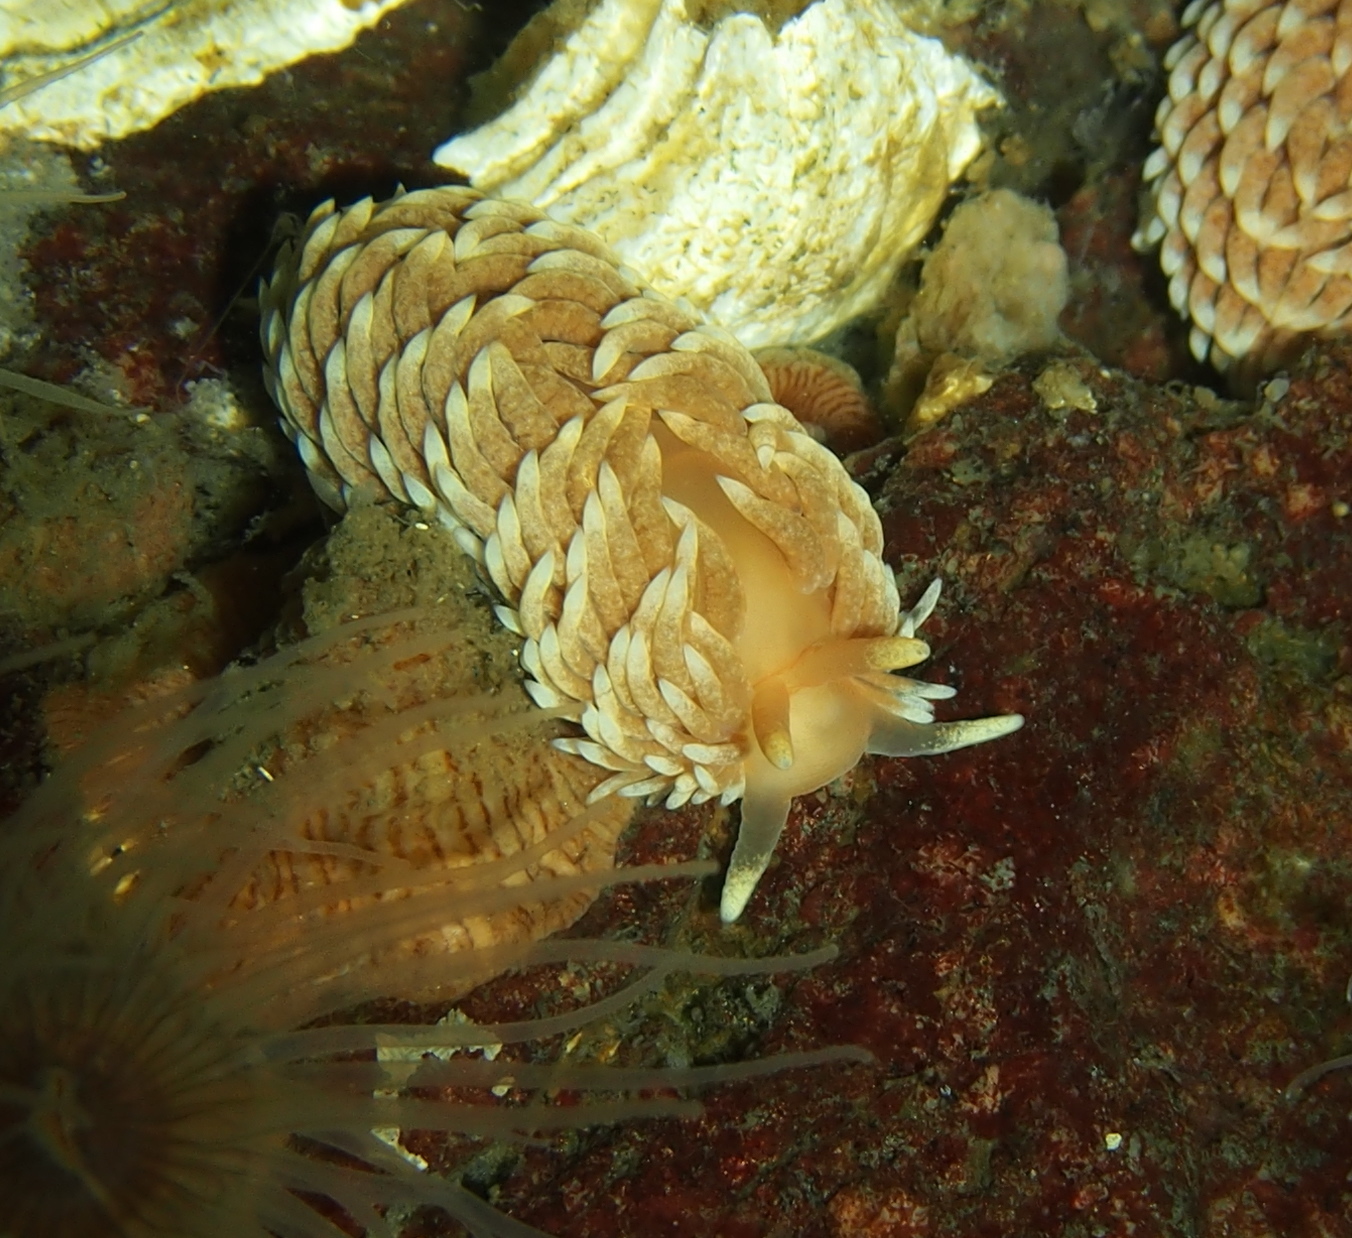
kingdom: Animalia
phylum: Mollusca
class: Gastropoda
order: Nudibranchia
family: Aeolidiidae
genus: Aeolidiella
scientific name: Aeolidiella glauca
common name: Orange-brown aeolid
